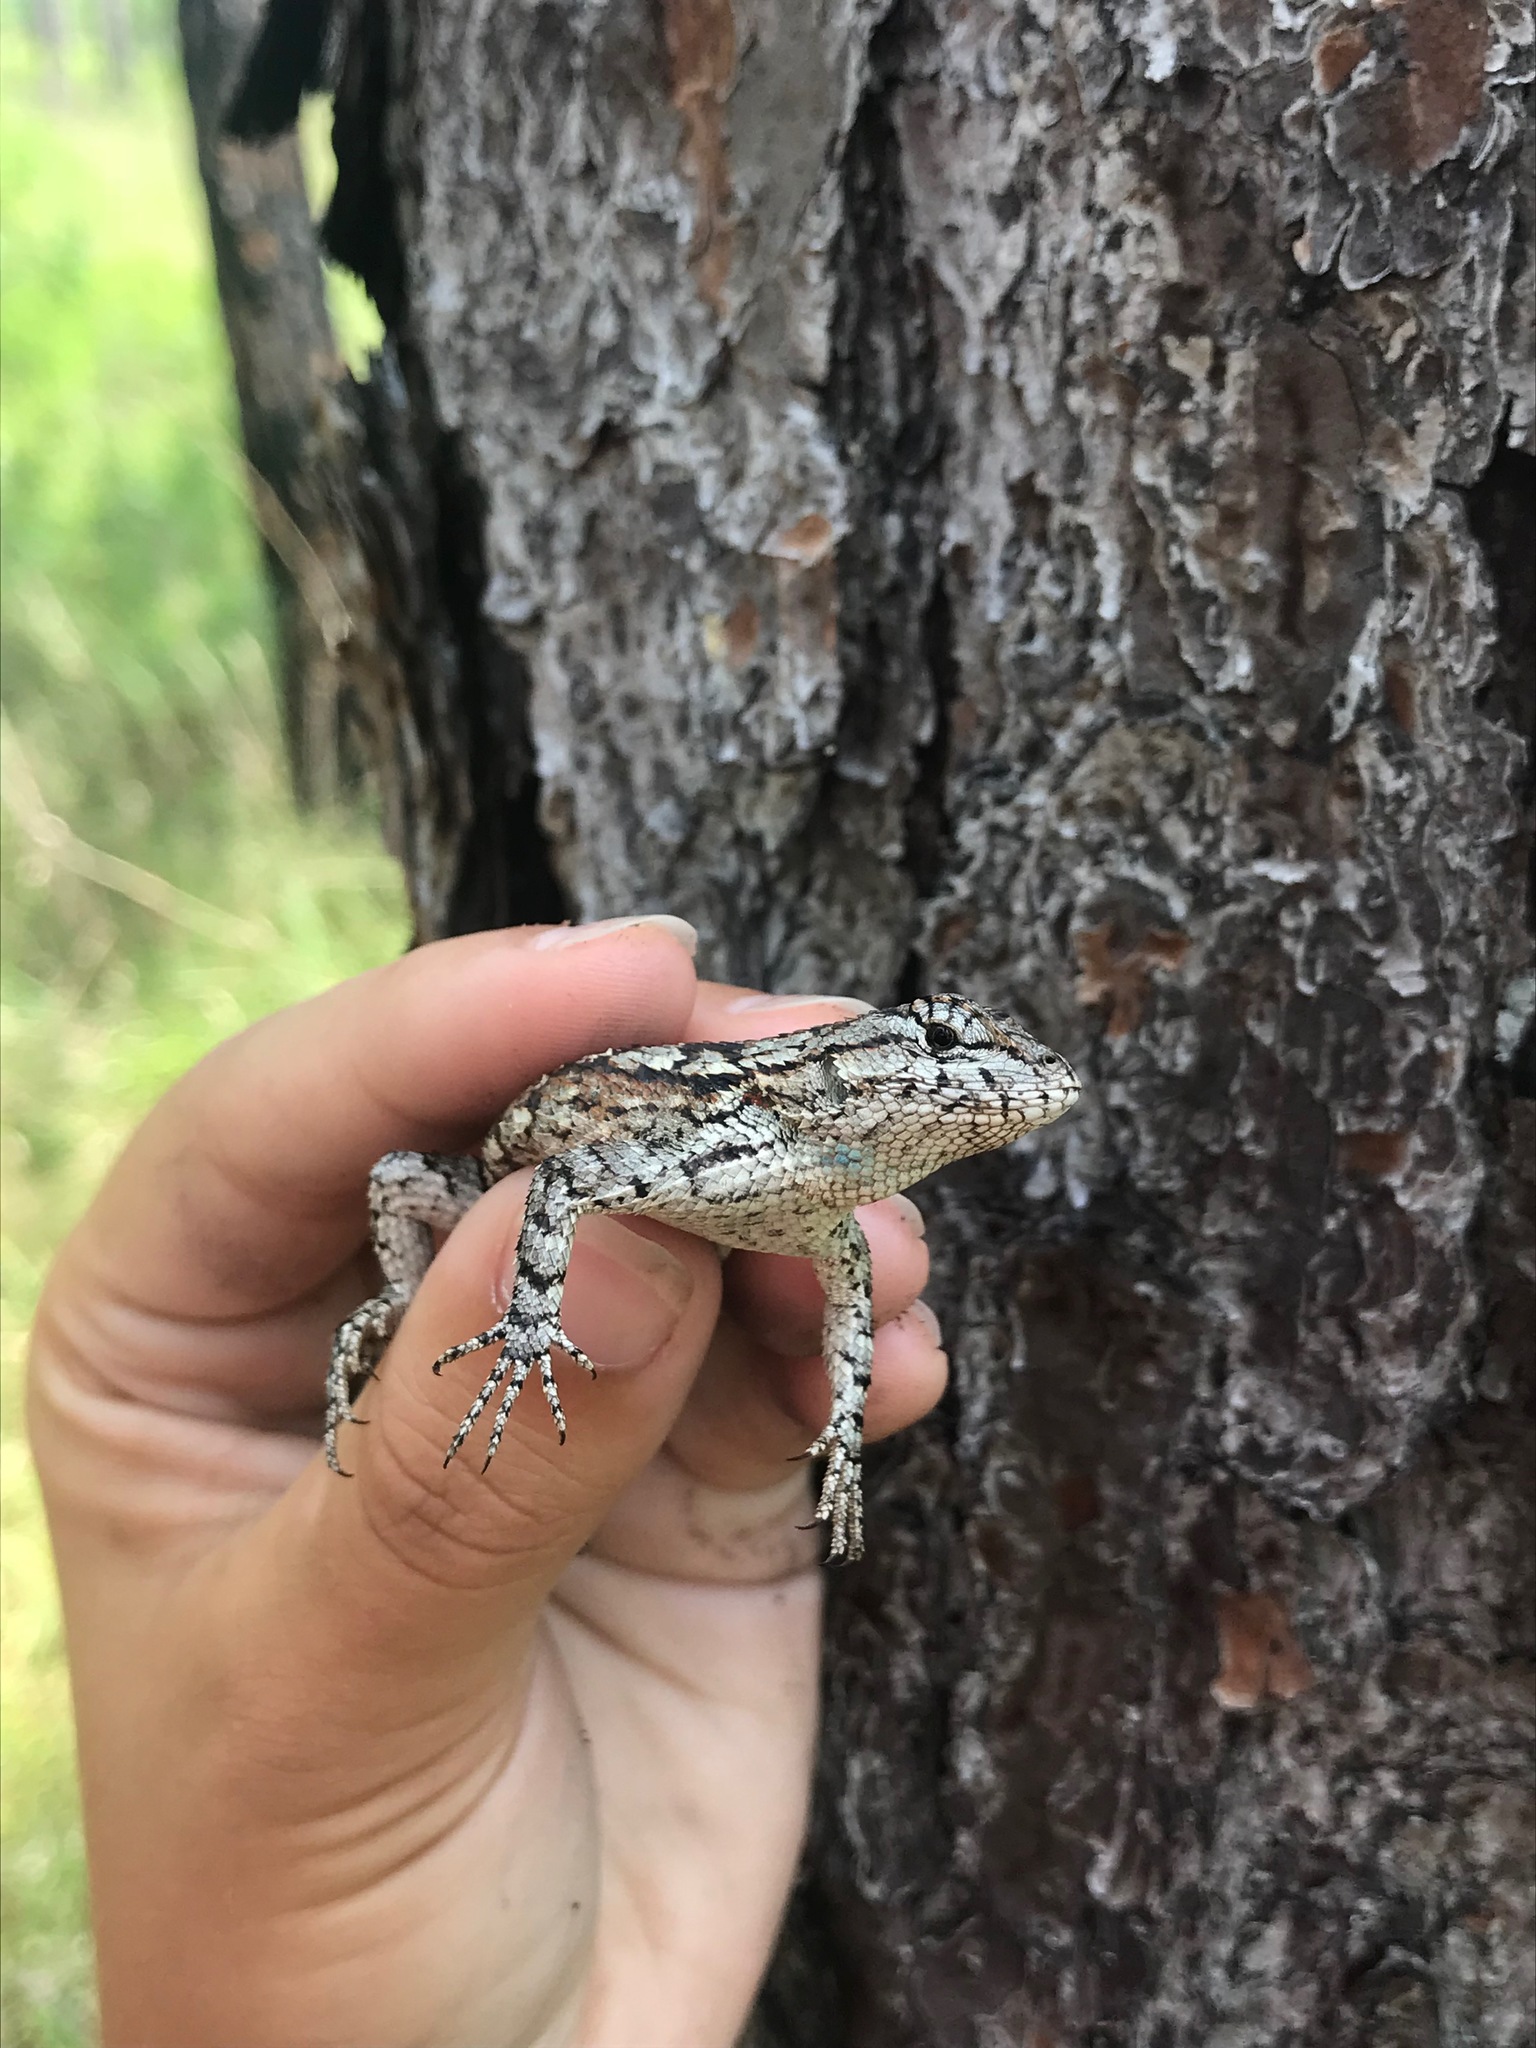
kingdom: Animalia
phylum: Chordata
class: Squamata
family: Phrynosomatidae
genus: Sceloporus
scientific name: Sceloporus consobrinus
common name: Southern prairie lizard
